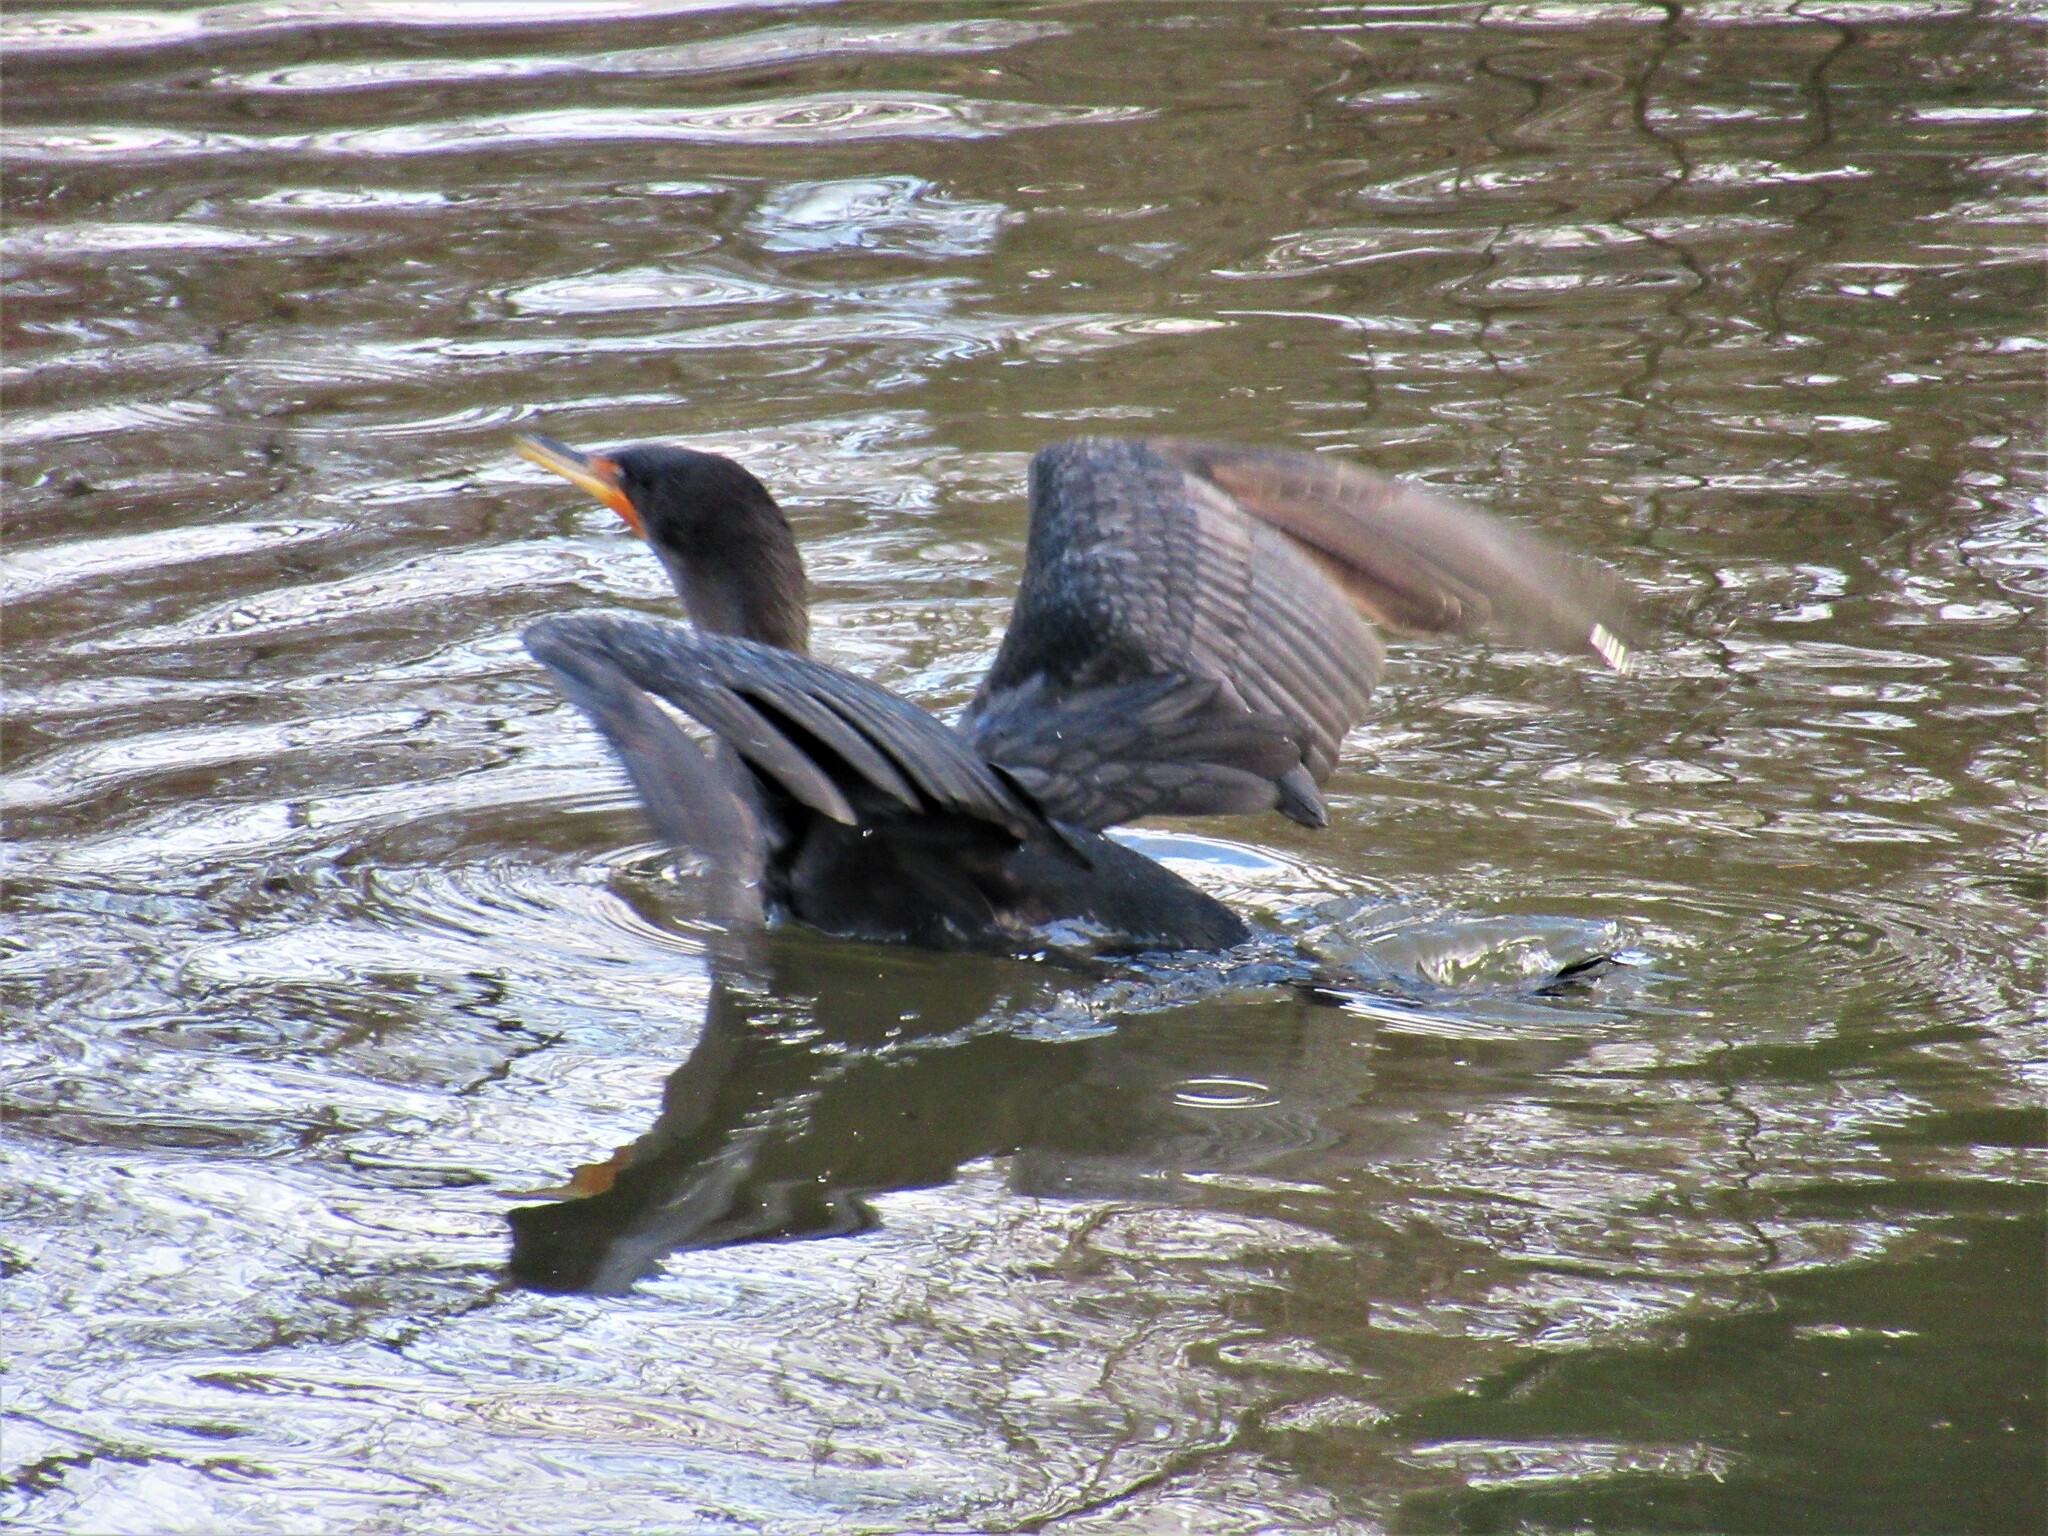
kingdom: Animalia
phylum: Chordata
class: Aves
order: Suliformes
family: Phalacrocoracidae
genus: Phalacrocorax
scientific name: Phalacrocorax auritus
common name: Double-crested cormorant
